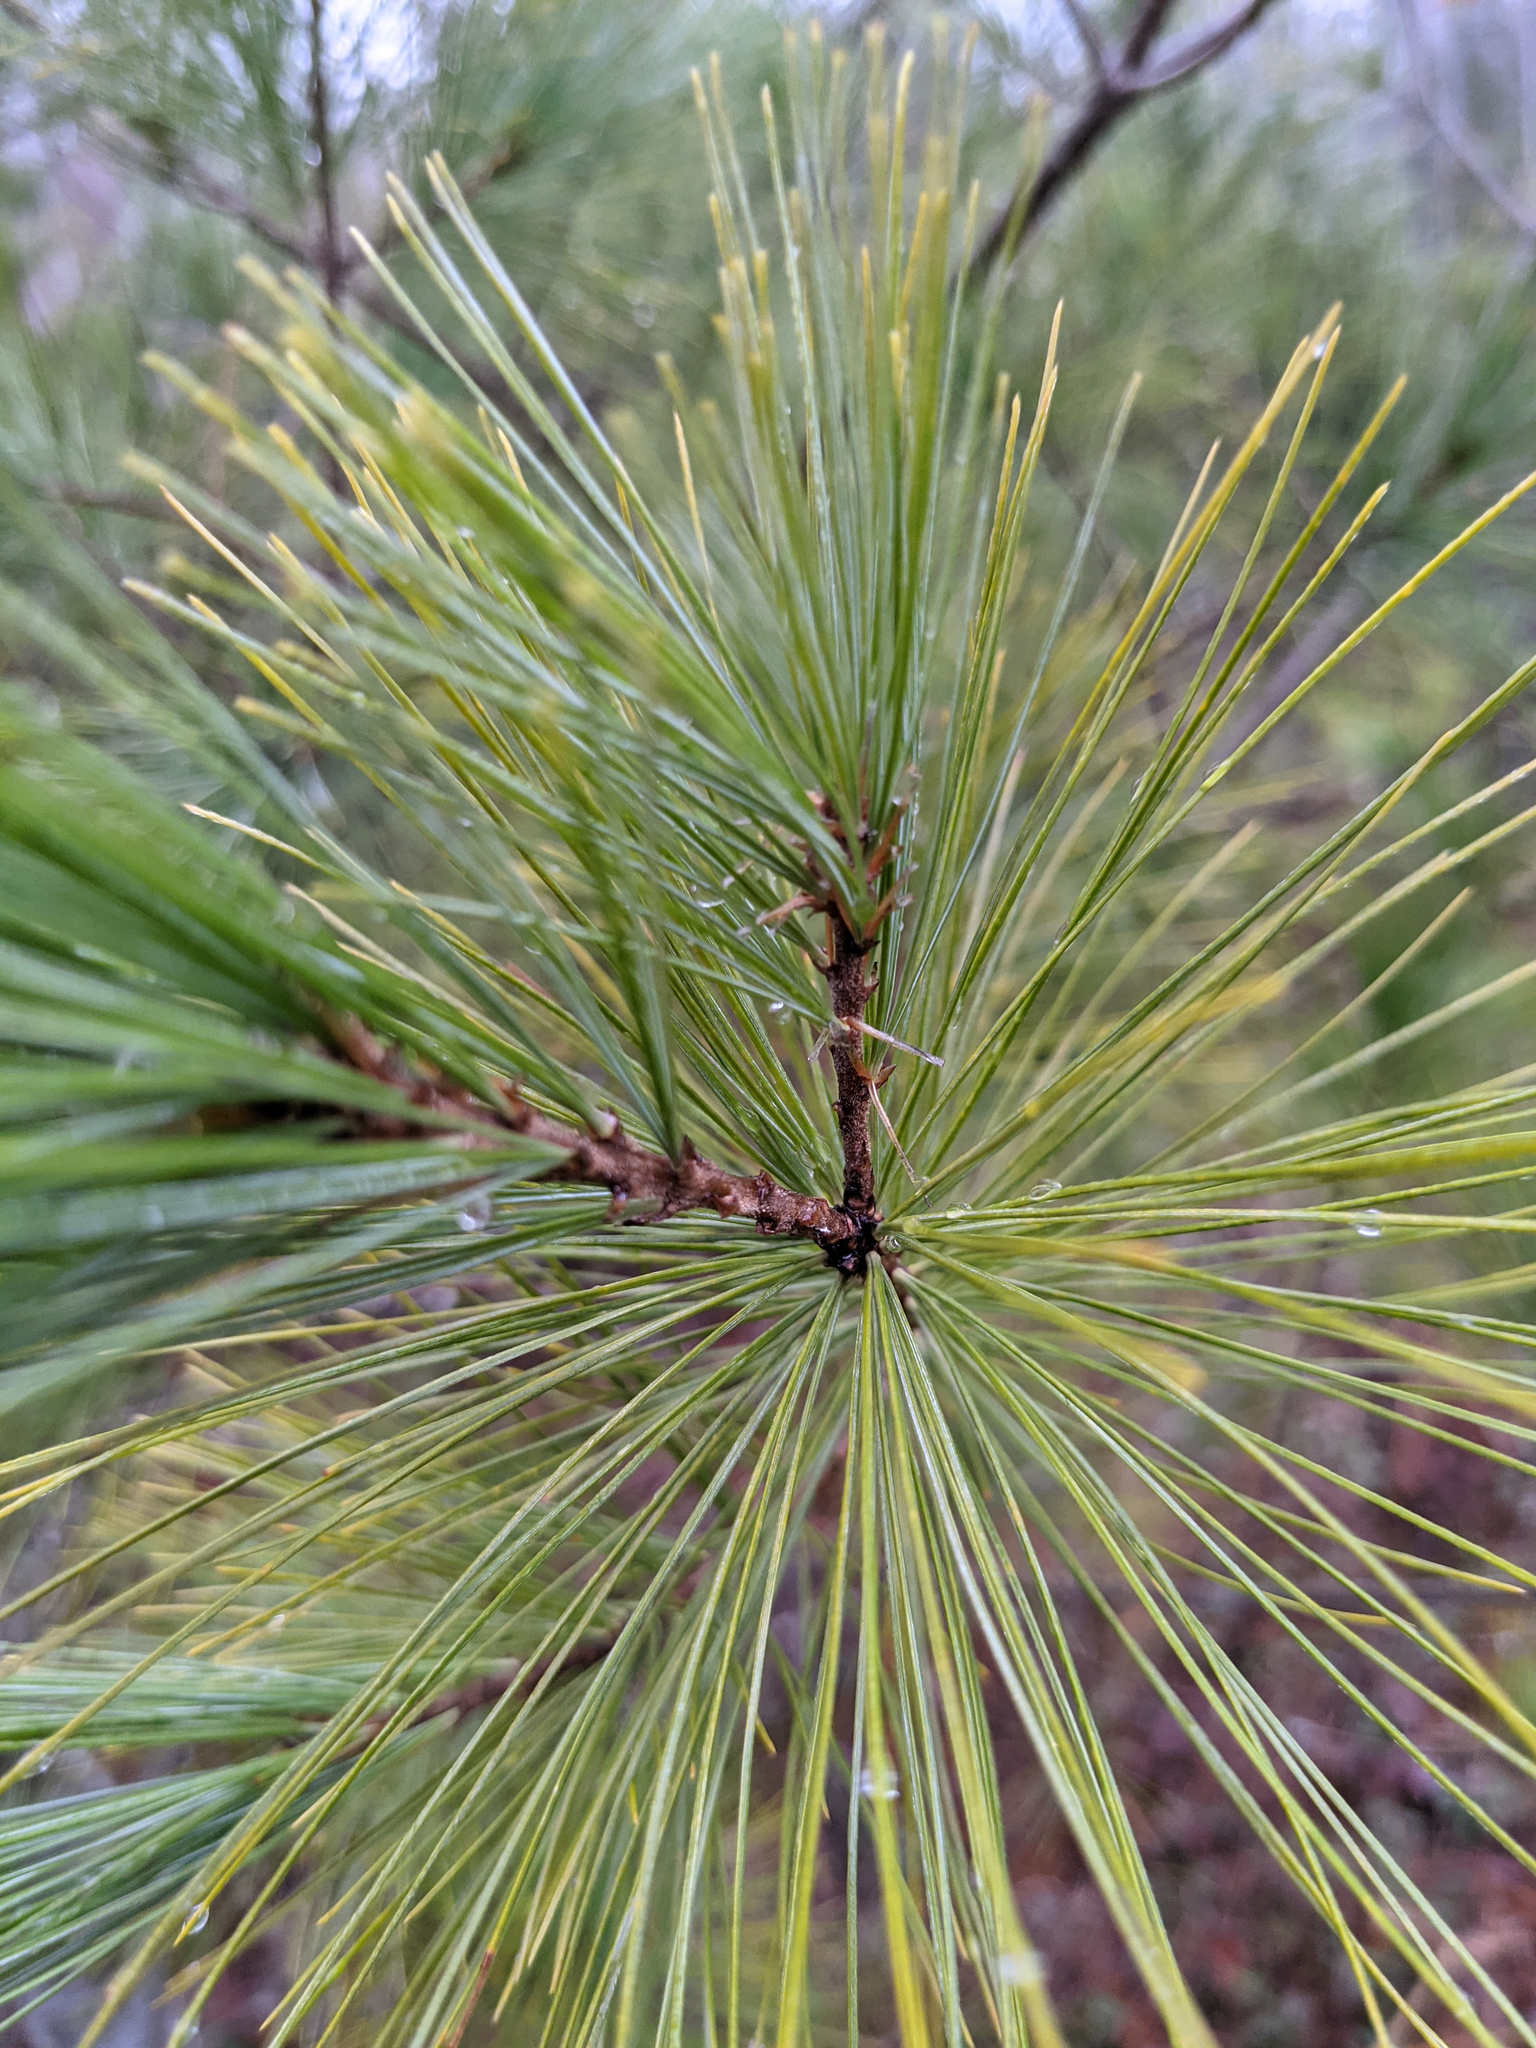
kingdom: Plantae
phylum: Tracheophyta
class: Pinopsida
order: Pinales
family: Pinaceae
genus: Pinus
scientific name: Pinus strobus
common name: Weymouth pine
